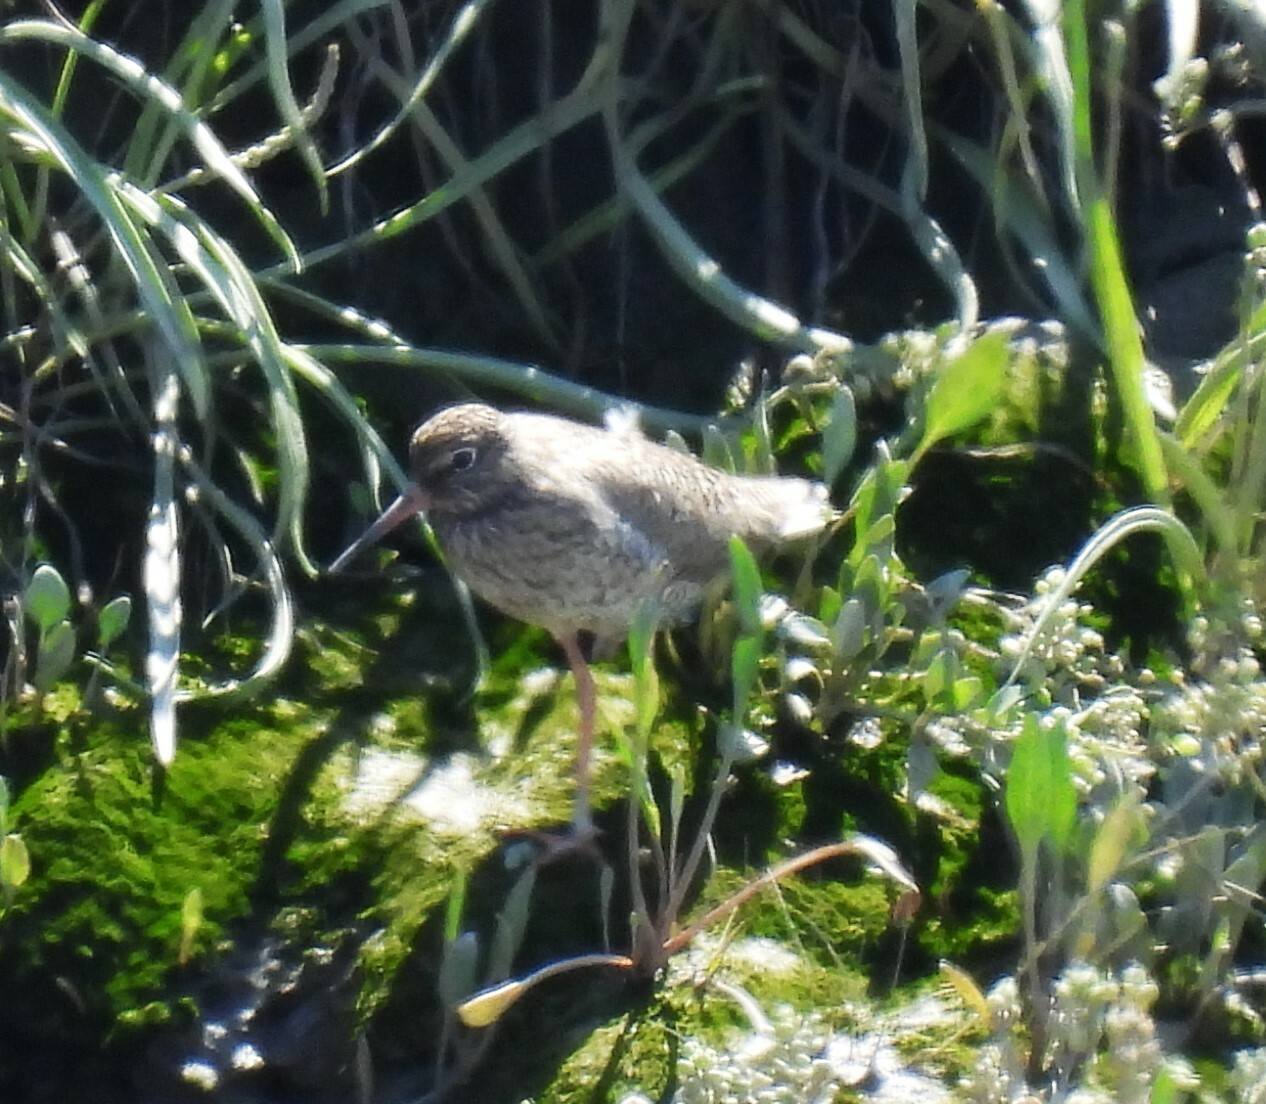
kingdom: Animalia
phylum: Chordata
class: Aves
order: Charadriiformes
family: Scolopacidae
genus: Tringa
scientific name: Tringa totanus
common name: Common redshank
